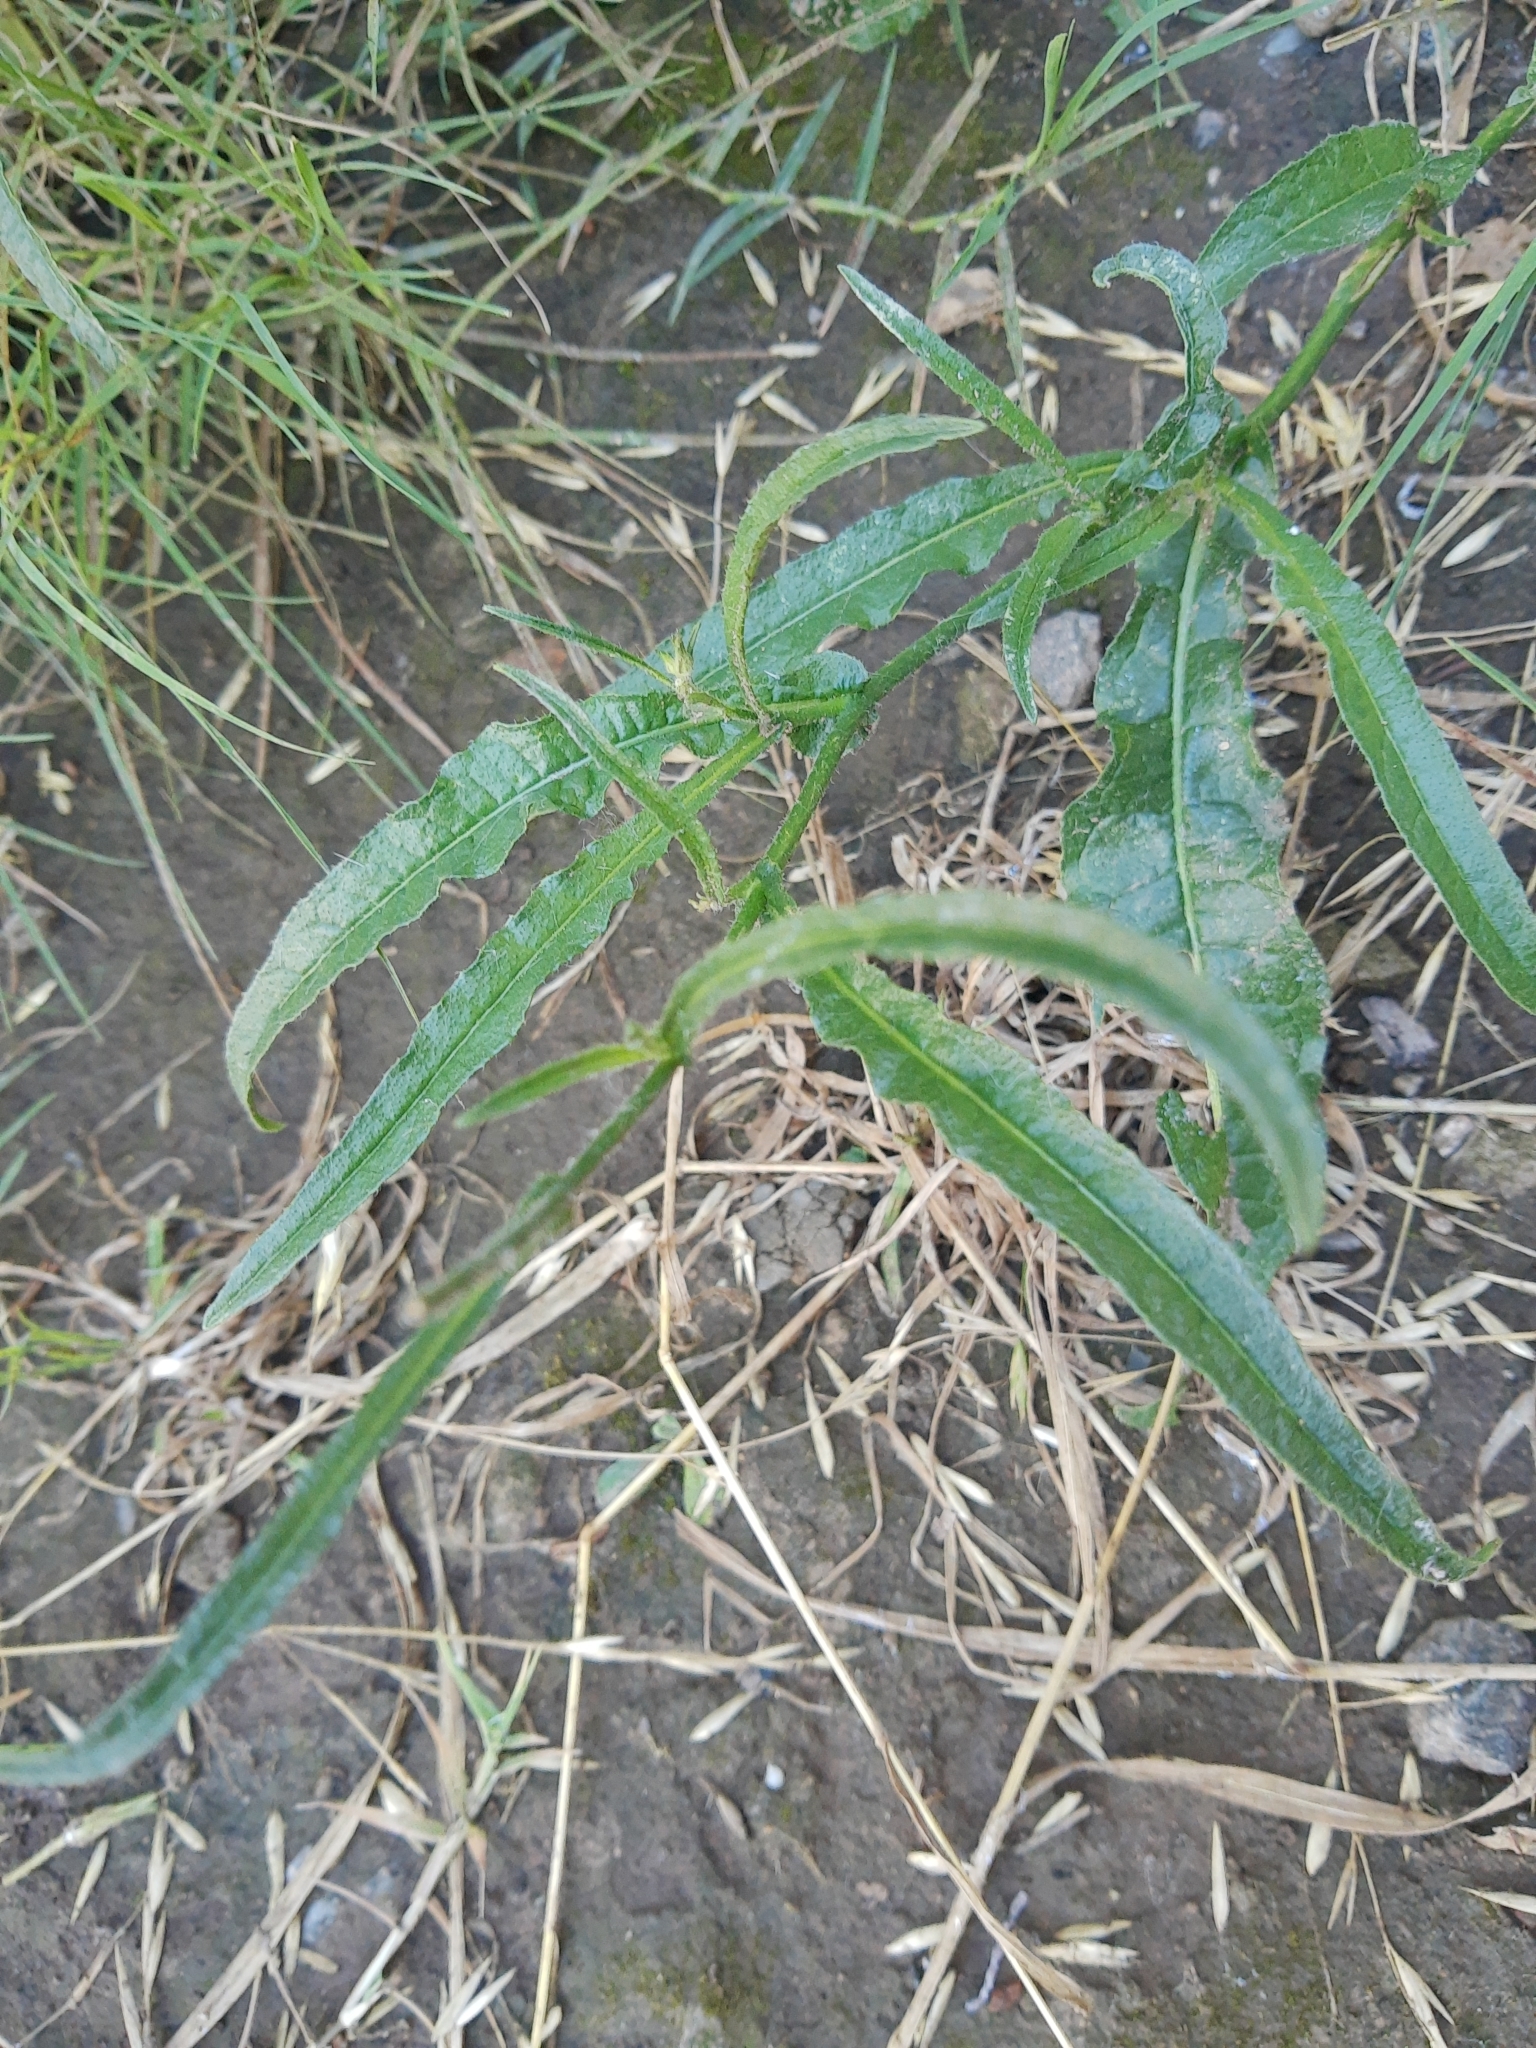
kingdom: Plantae
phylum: Tracheophyta
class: Magnoliopsida
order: Solanales
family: Solanaceae
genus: Nicotiana
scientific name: Nicotiana longiflora
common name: Long-flowered tobacco
